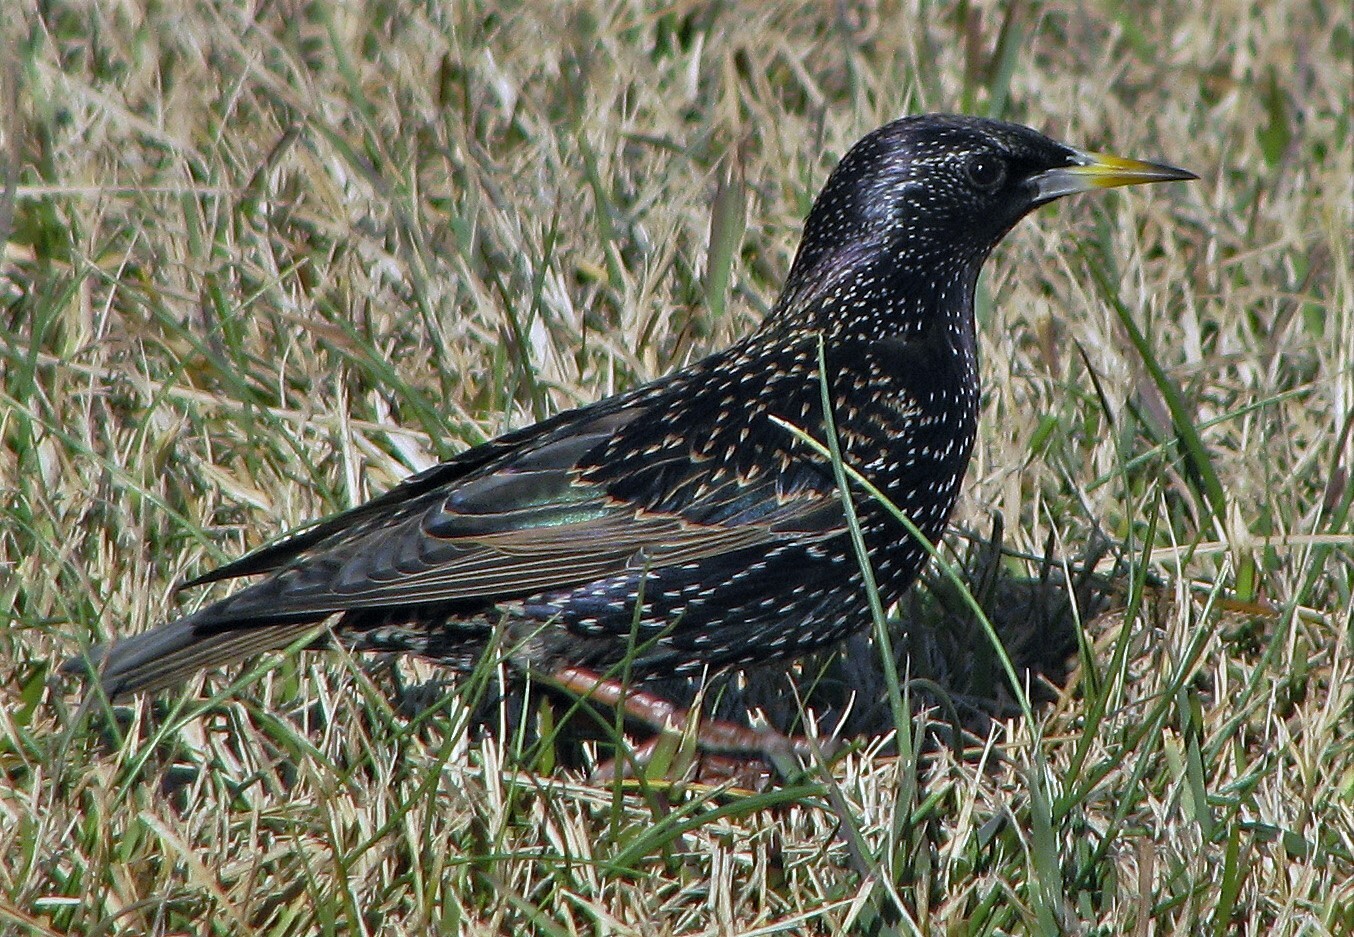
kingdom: Animalia
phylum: Chordata
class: Aves
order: Passeriformes
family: Sturnidae
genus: Sturnus
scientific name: Sturnus vulgaris
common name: Common starling
